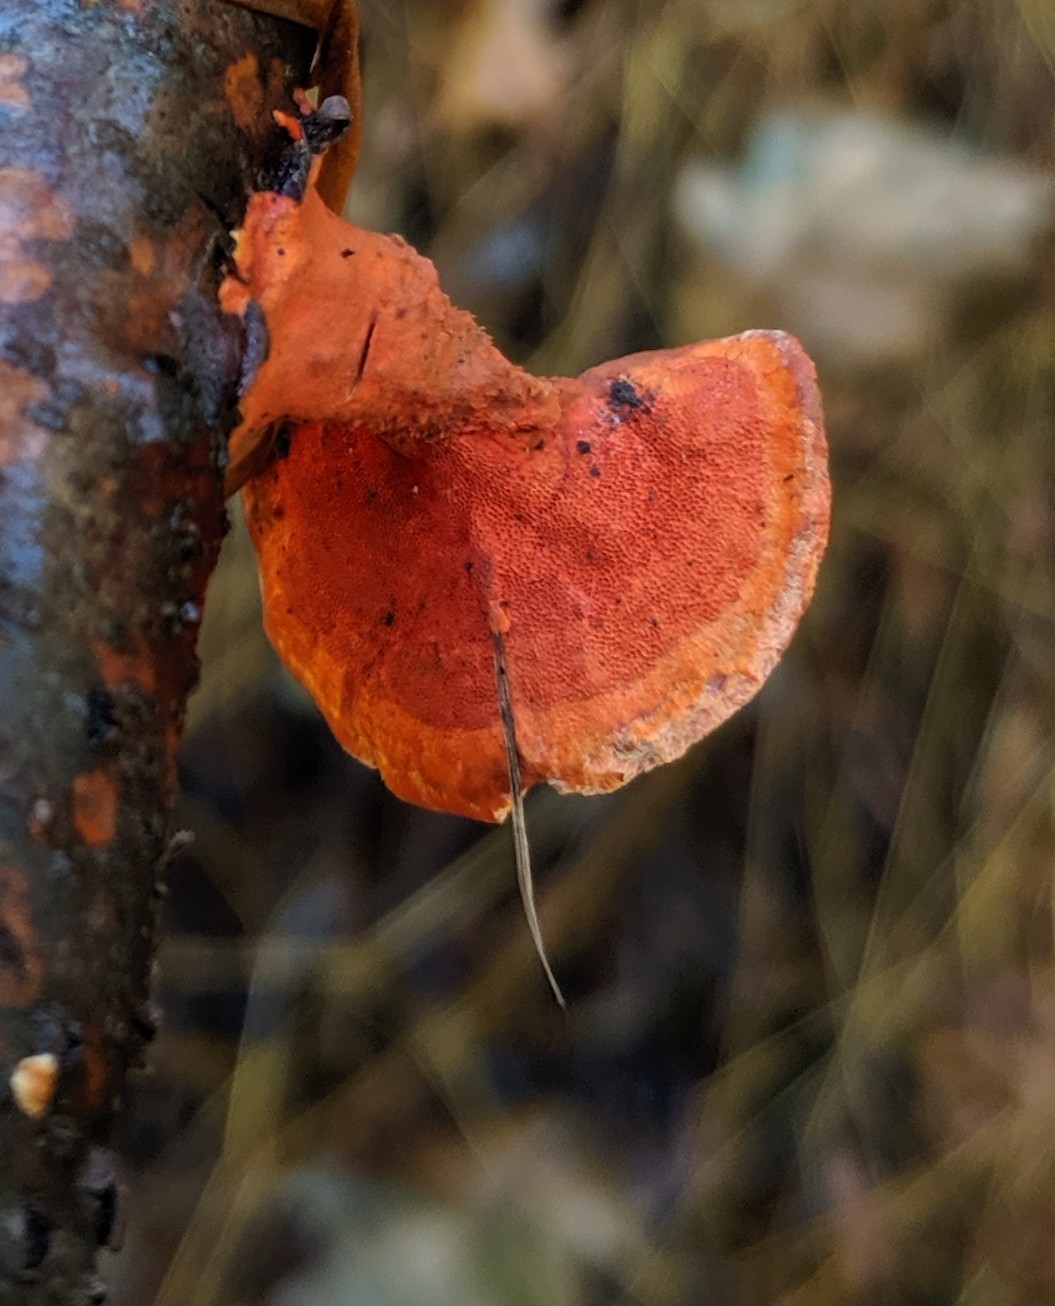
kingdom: Fungi
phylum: Basidiomycota
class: Agaricomycetes
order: Polyporales
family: Polyporaceae
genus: Trametes
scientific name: Trametes cinnabarina
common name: Northern cinnabar polypore
